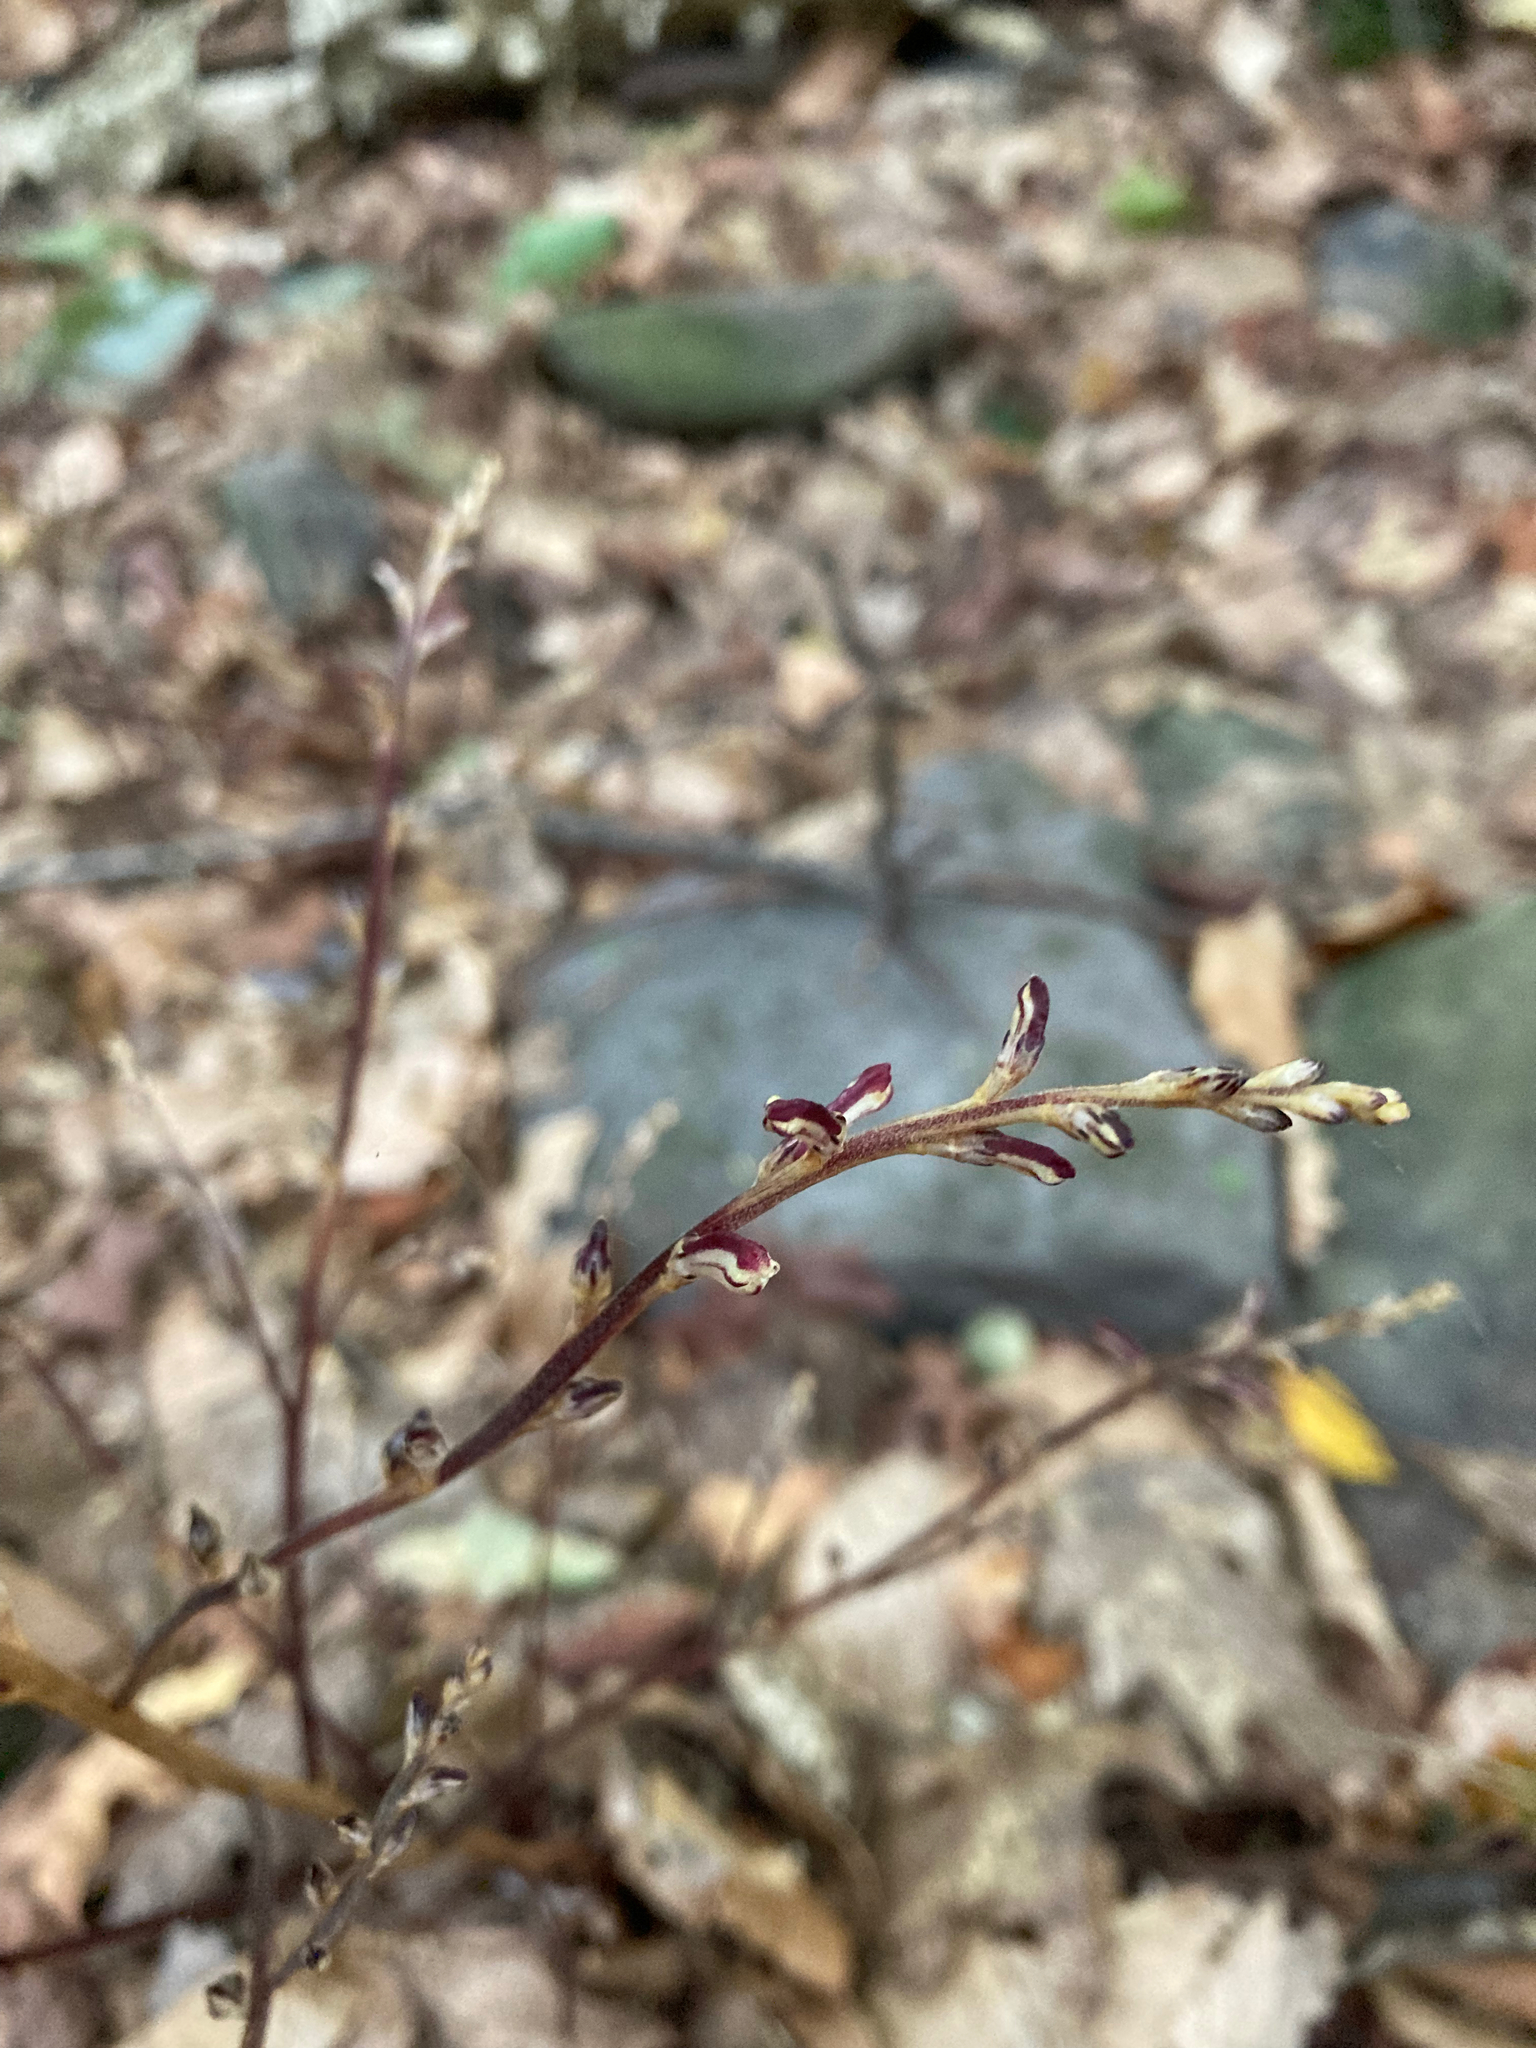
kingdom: Plantae
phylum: Tracheophyta
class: Magnoliopsida
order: Lamiales
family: Orobanchaceae
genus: Epifagus
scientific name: Epifagus virginiana
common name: Beechdrops
